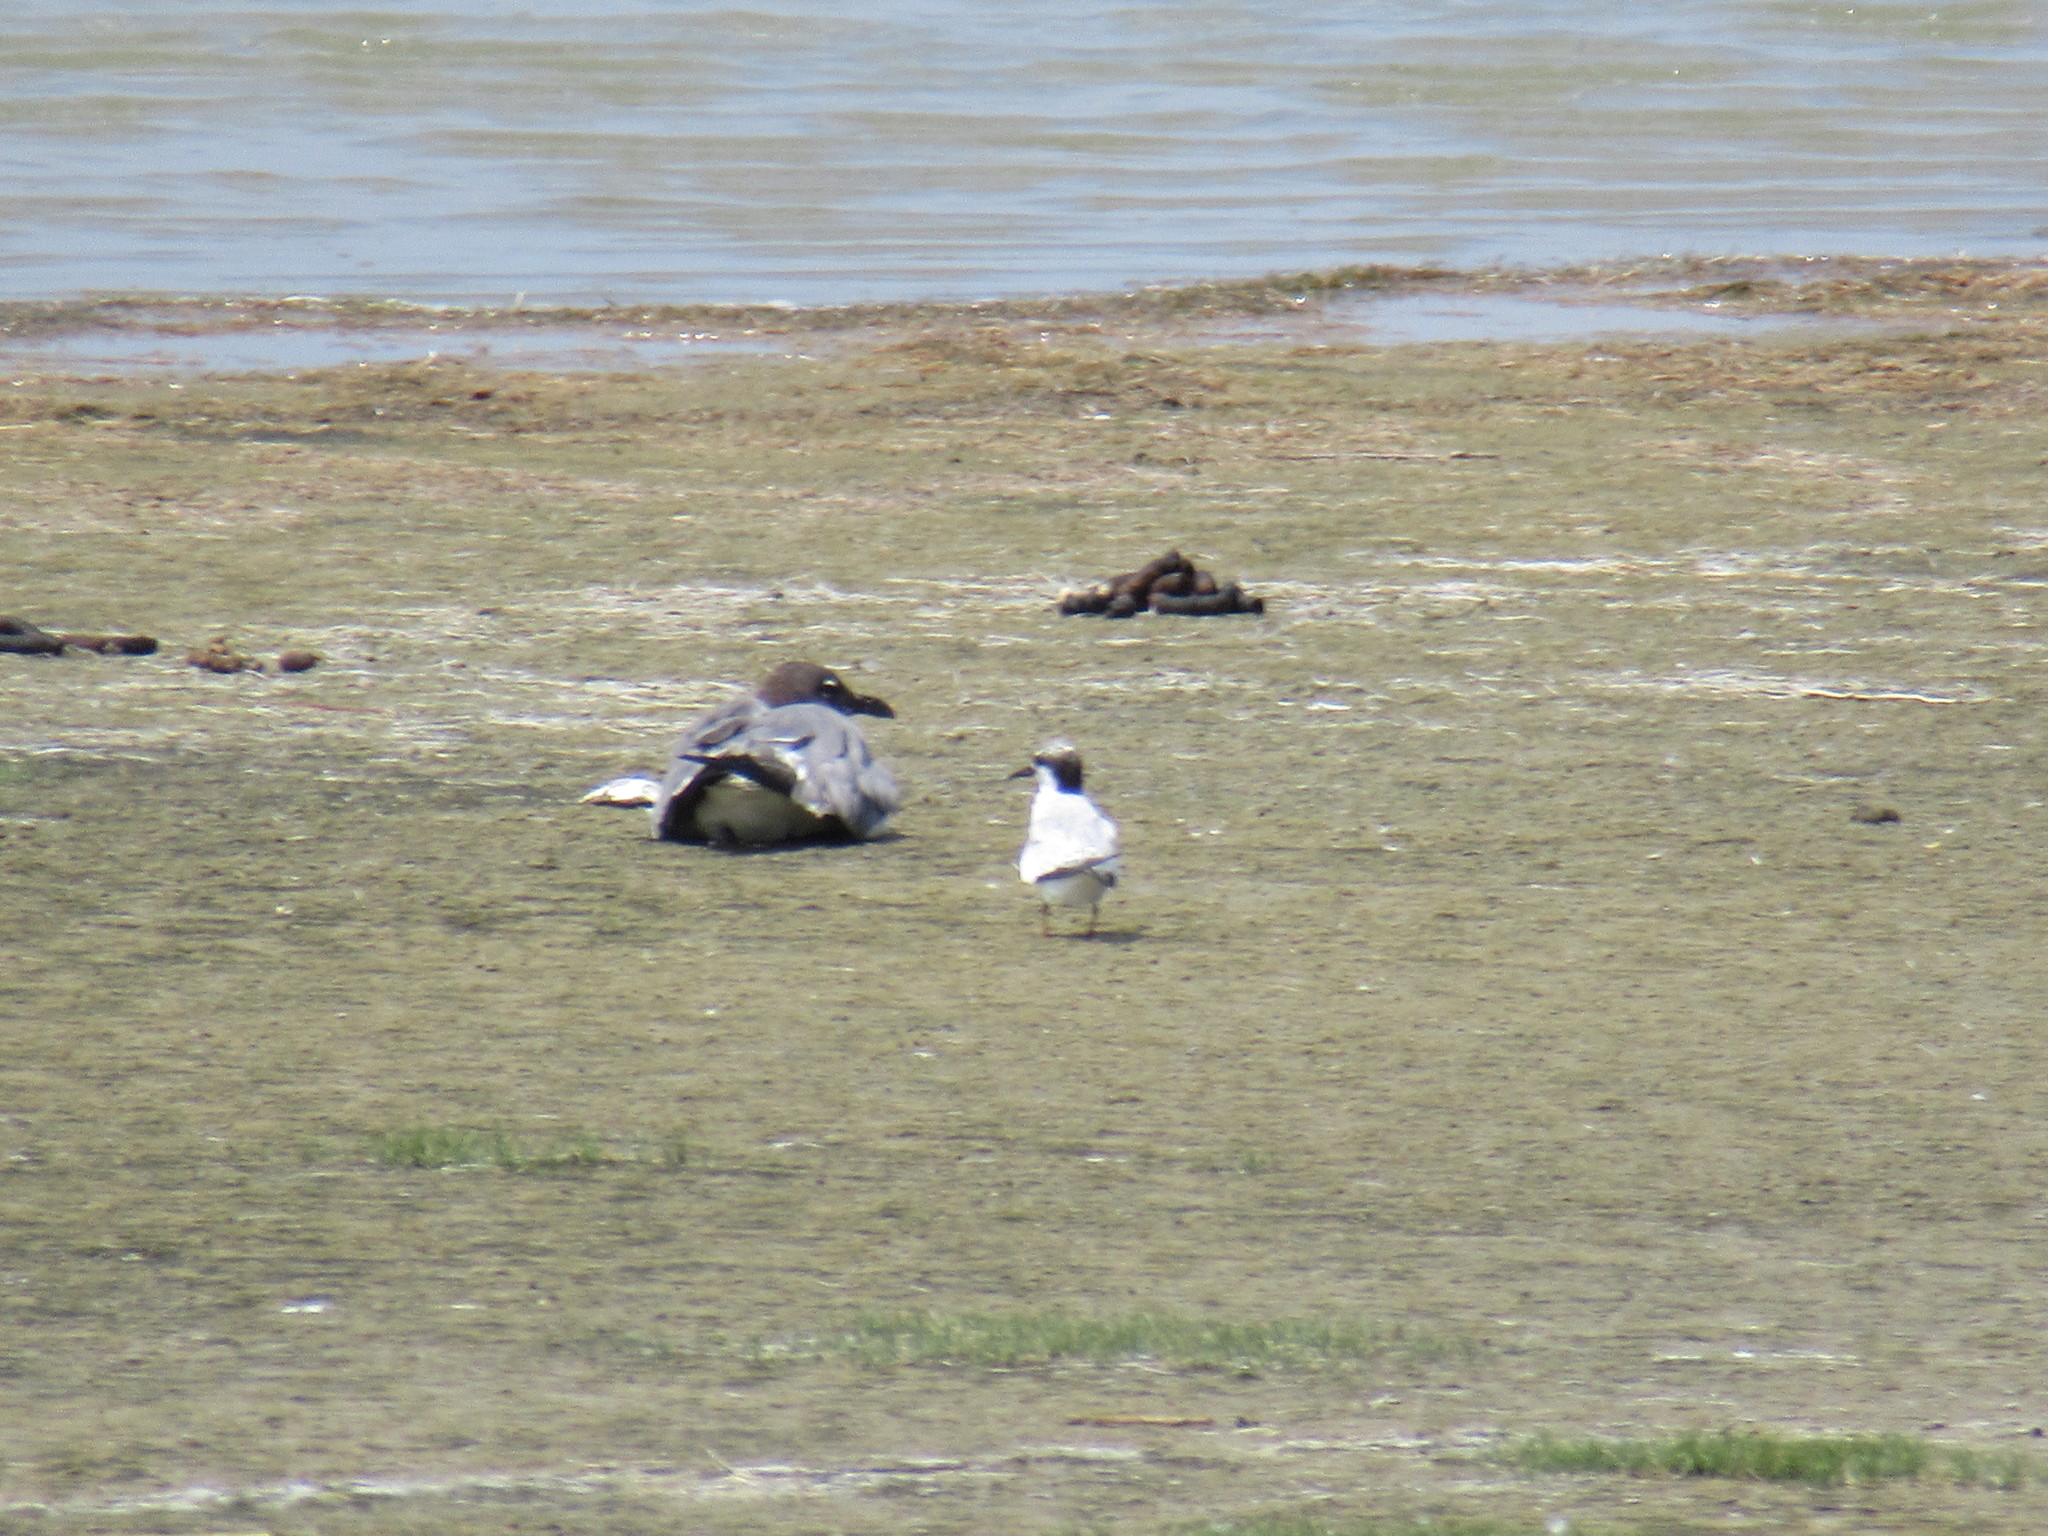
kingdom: Animalia
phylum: Chordata
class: Aves
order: Charadriiformes
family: Laridae
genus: Leucophaeus
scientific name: Leucophaeus atricilla
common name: Laughing gull
